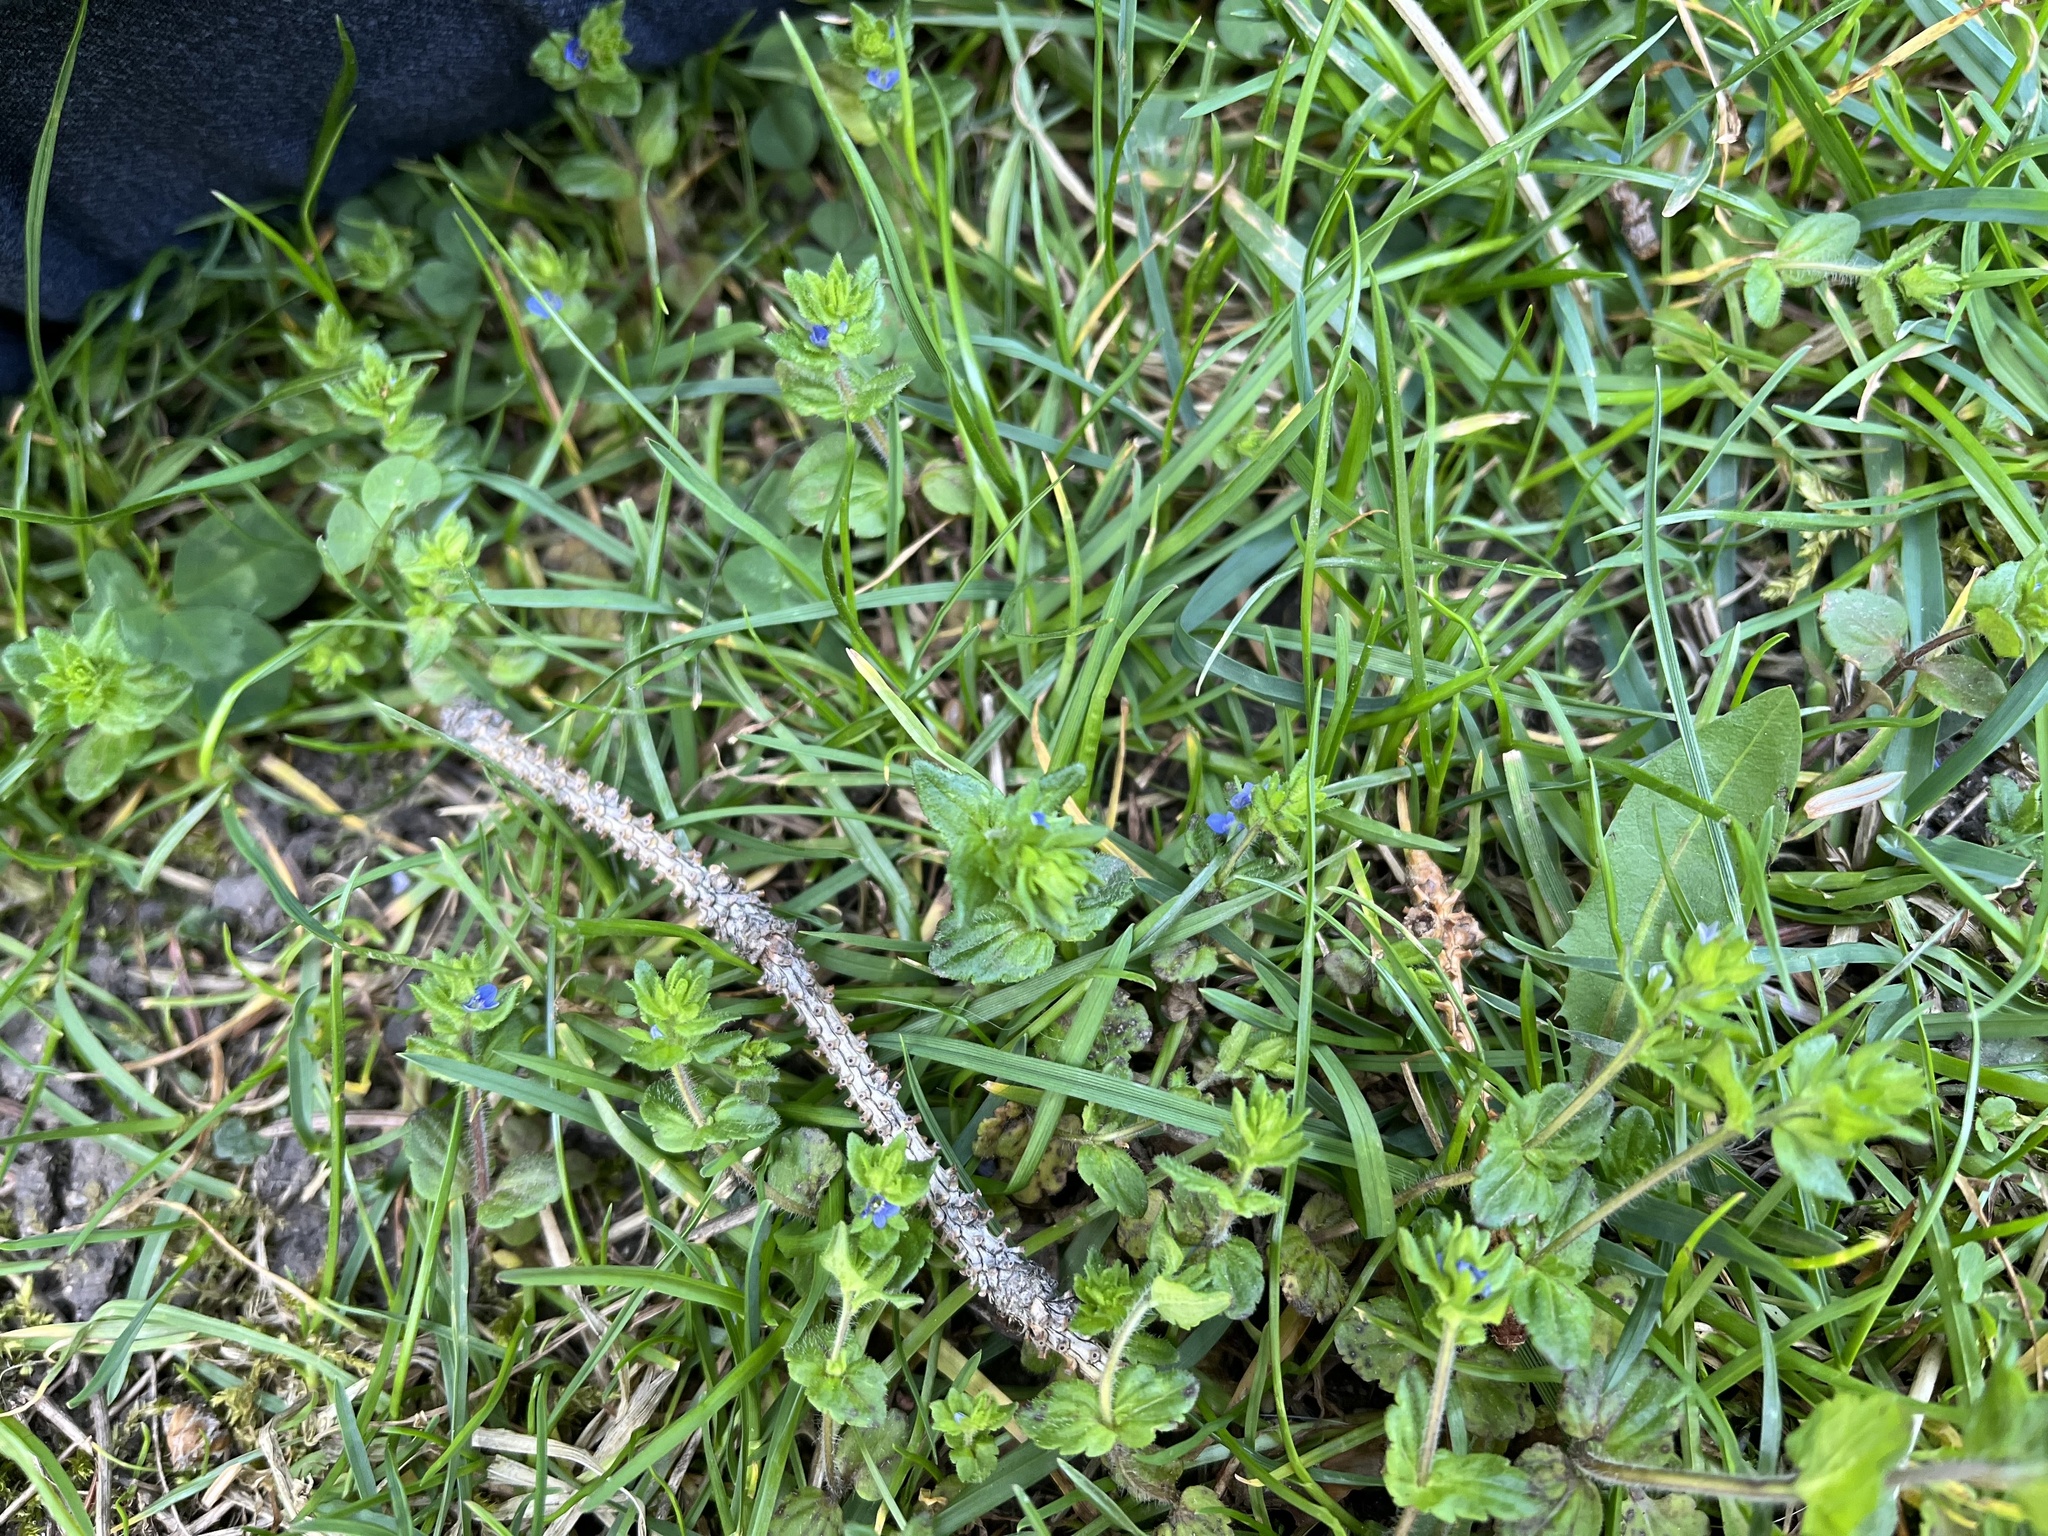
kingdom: Plantae
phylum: Tracheophyta
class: Magnoliopsida
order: Lamiales
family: Plantaginaceae
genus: Veronica
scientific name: Veronica arvensis
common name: Corn speedwell
